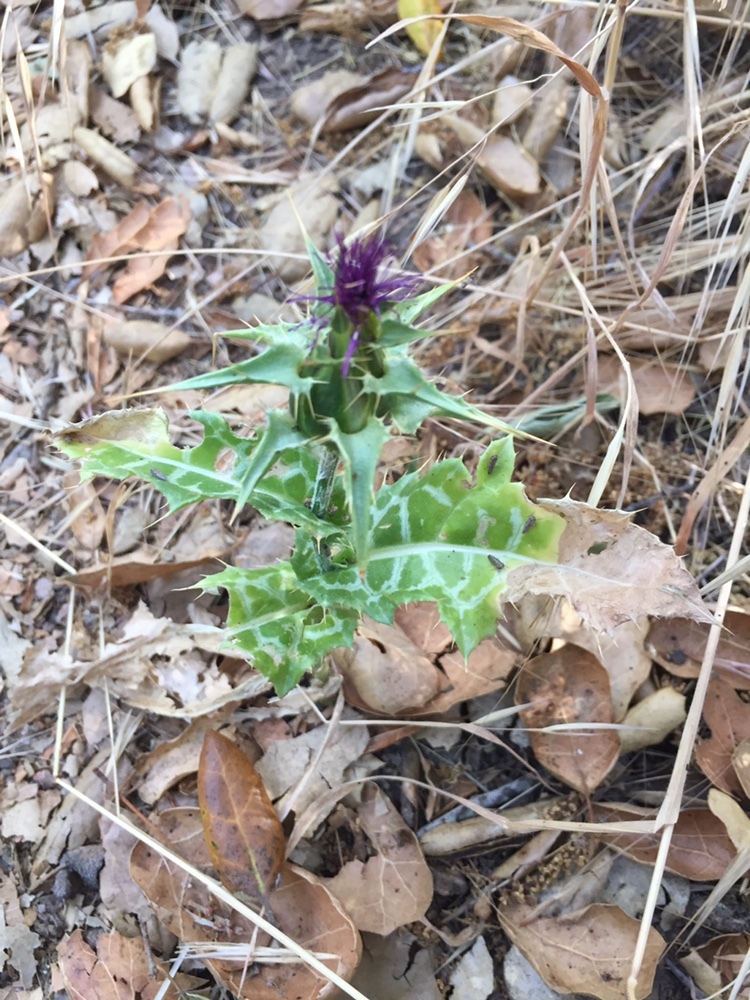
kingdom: Plantae
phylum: Tracheophyta
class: Magnoliopsida
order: Asterales
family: Asteraceae
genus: Silybum
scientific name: Silybum marianum
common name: Milk thistle
